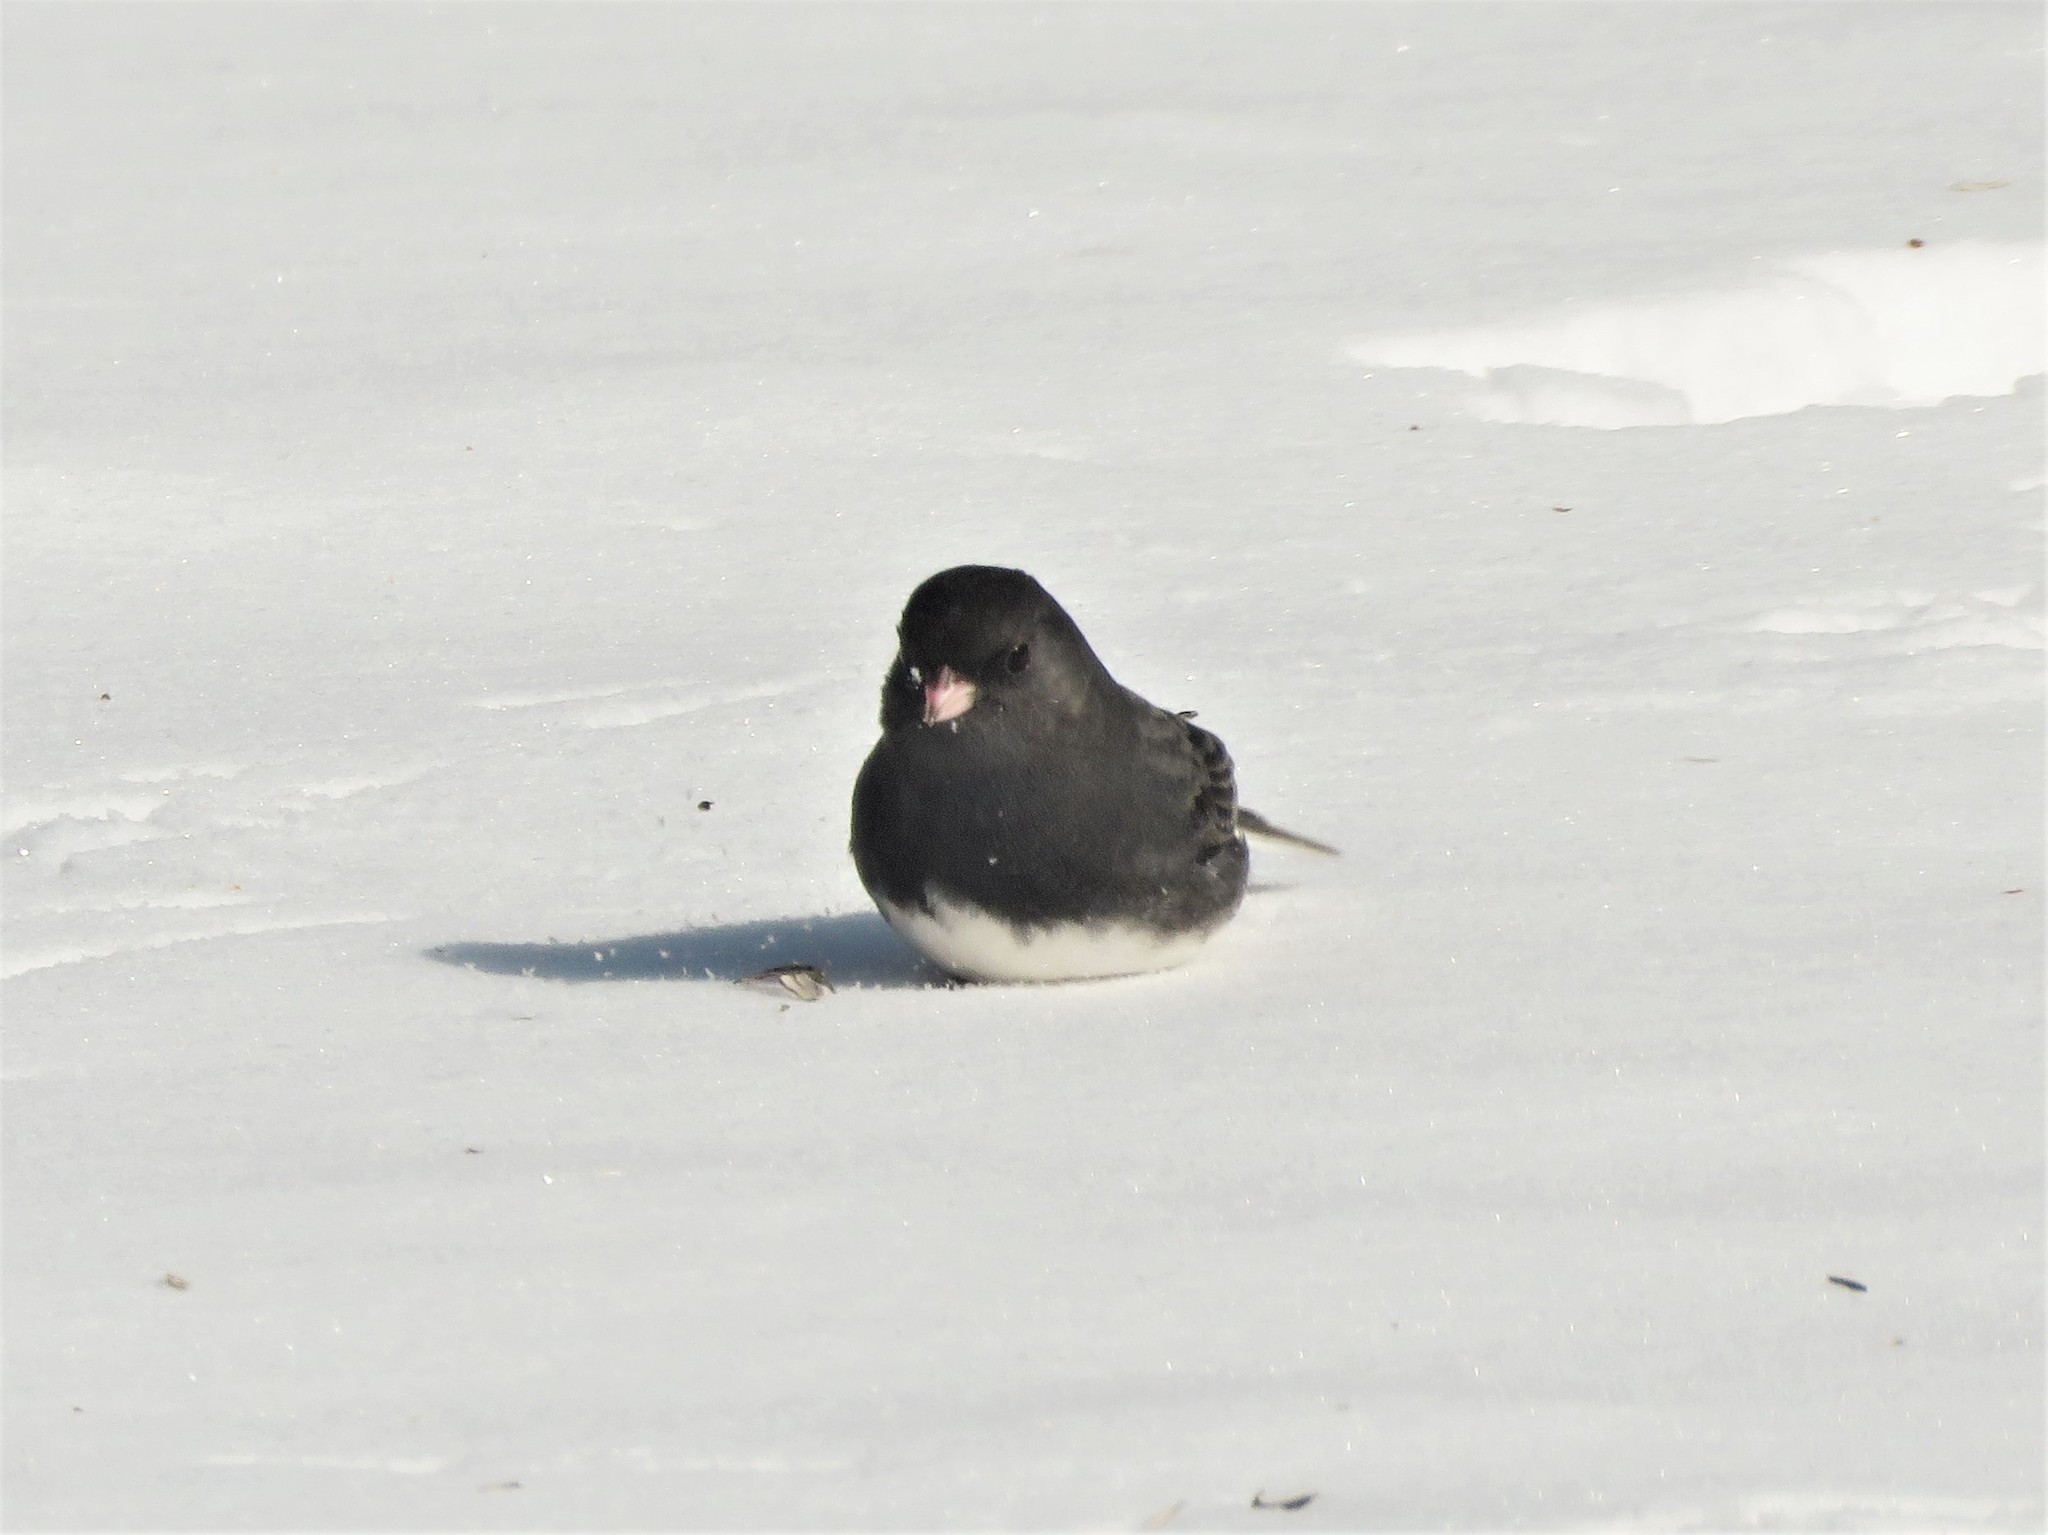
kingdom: Animalia
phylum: Chordata
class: Aves
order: Passeriformes
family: Passerellidae
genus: Junco
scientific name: Junco hyemalis
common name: Dark-eyed junco
